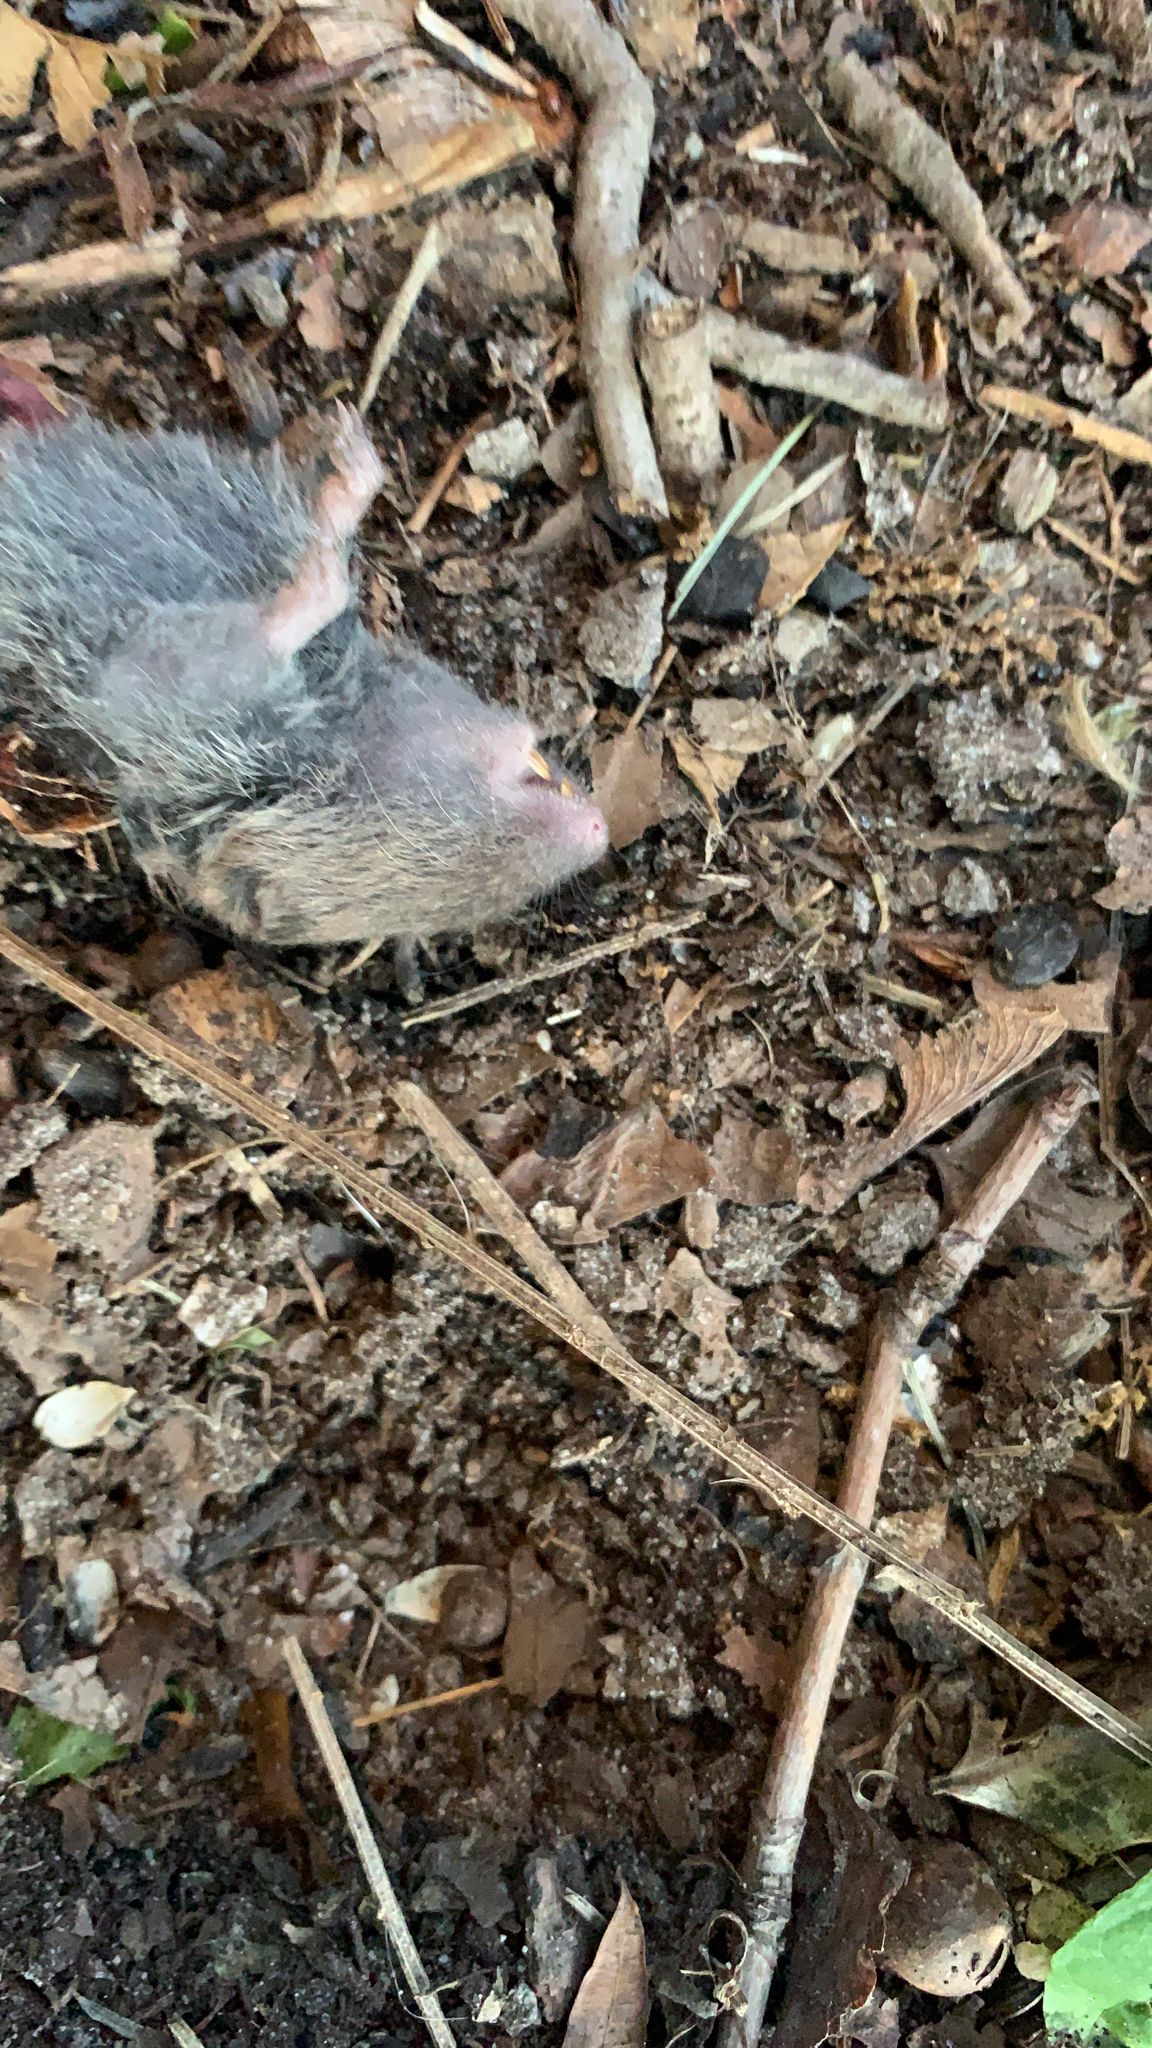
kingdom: Animalia
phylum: Chordata
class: Mammalia
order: Rodentia
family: Cricetidae
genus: Microtus
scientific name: Microtus pinetorum
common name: Woodland vole
